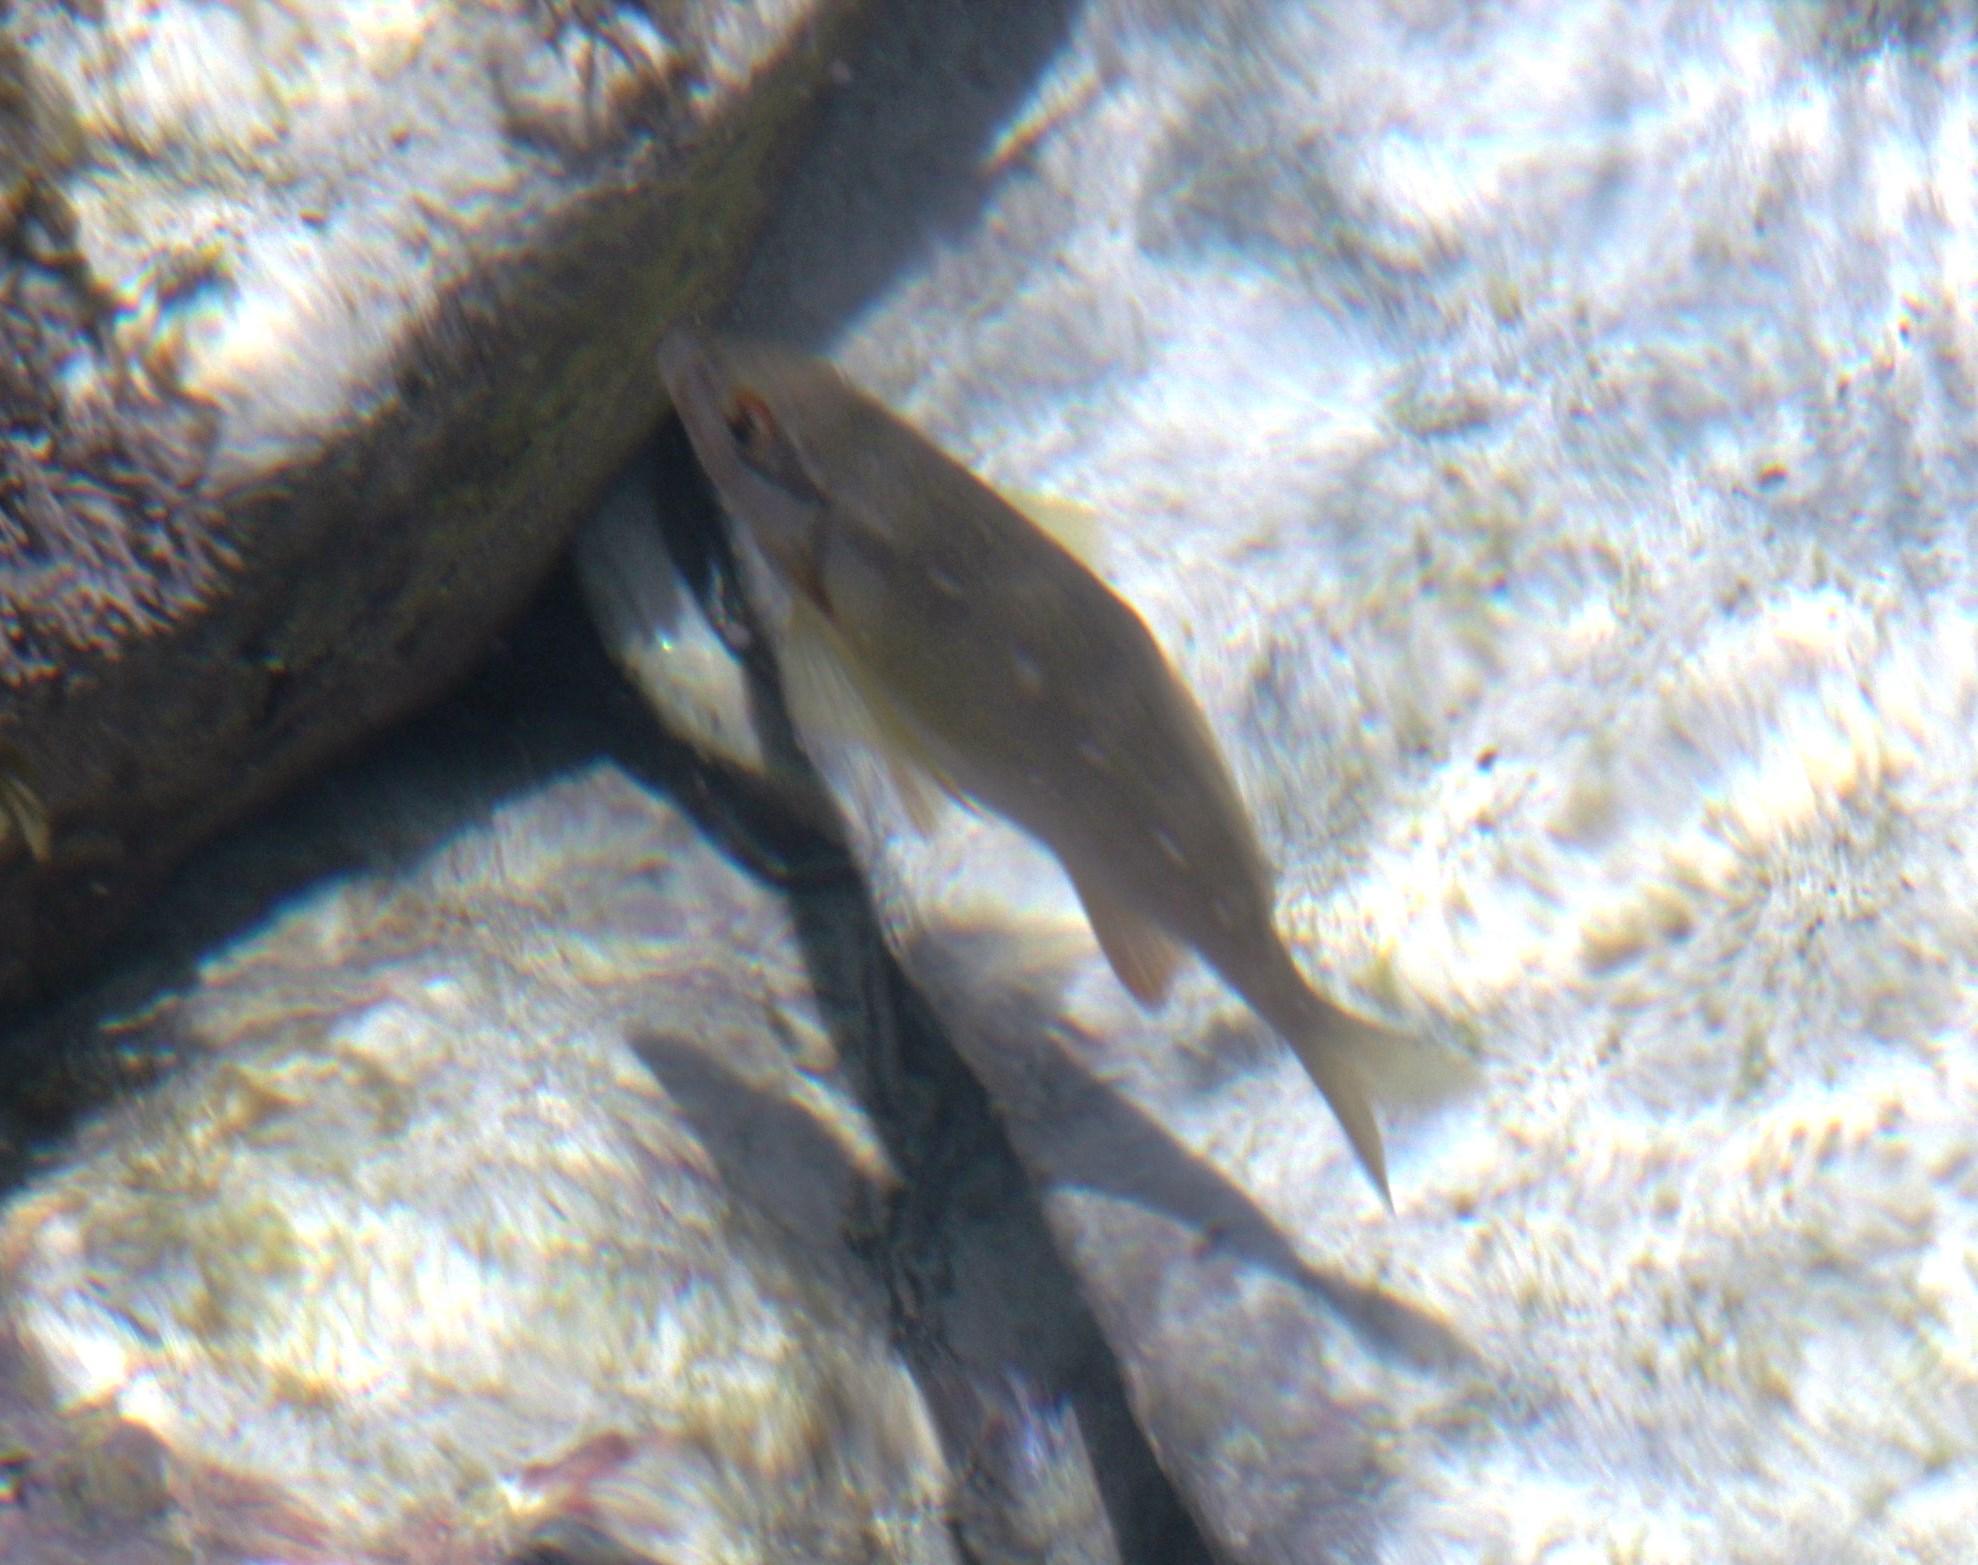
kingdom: Animalia
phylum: Chordata
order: Perciformes
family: Cheilodactylidae
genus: Chirodactylus
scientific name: Chirodactylus brachydactylus
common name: Butterfish
